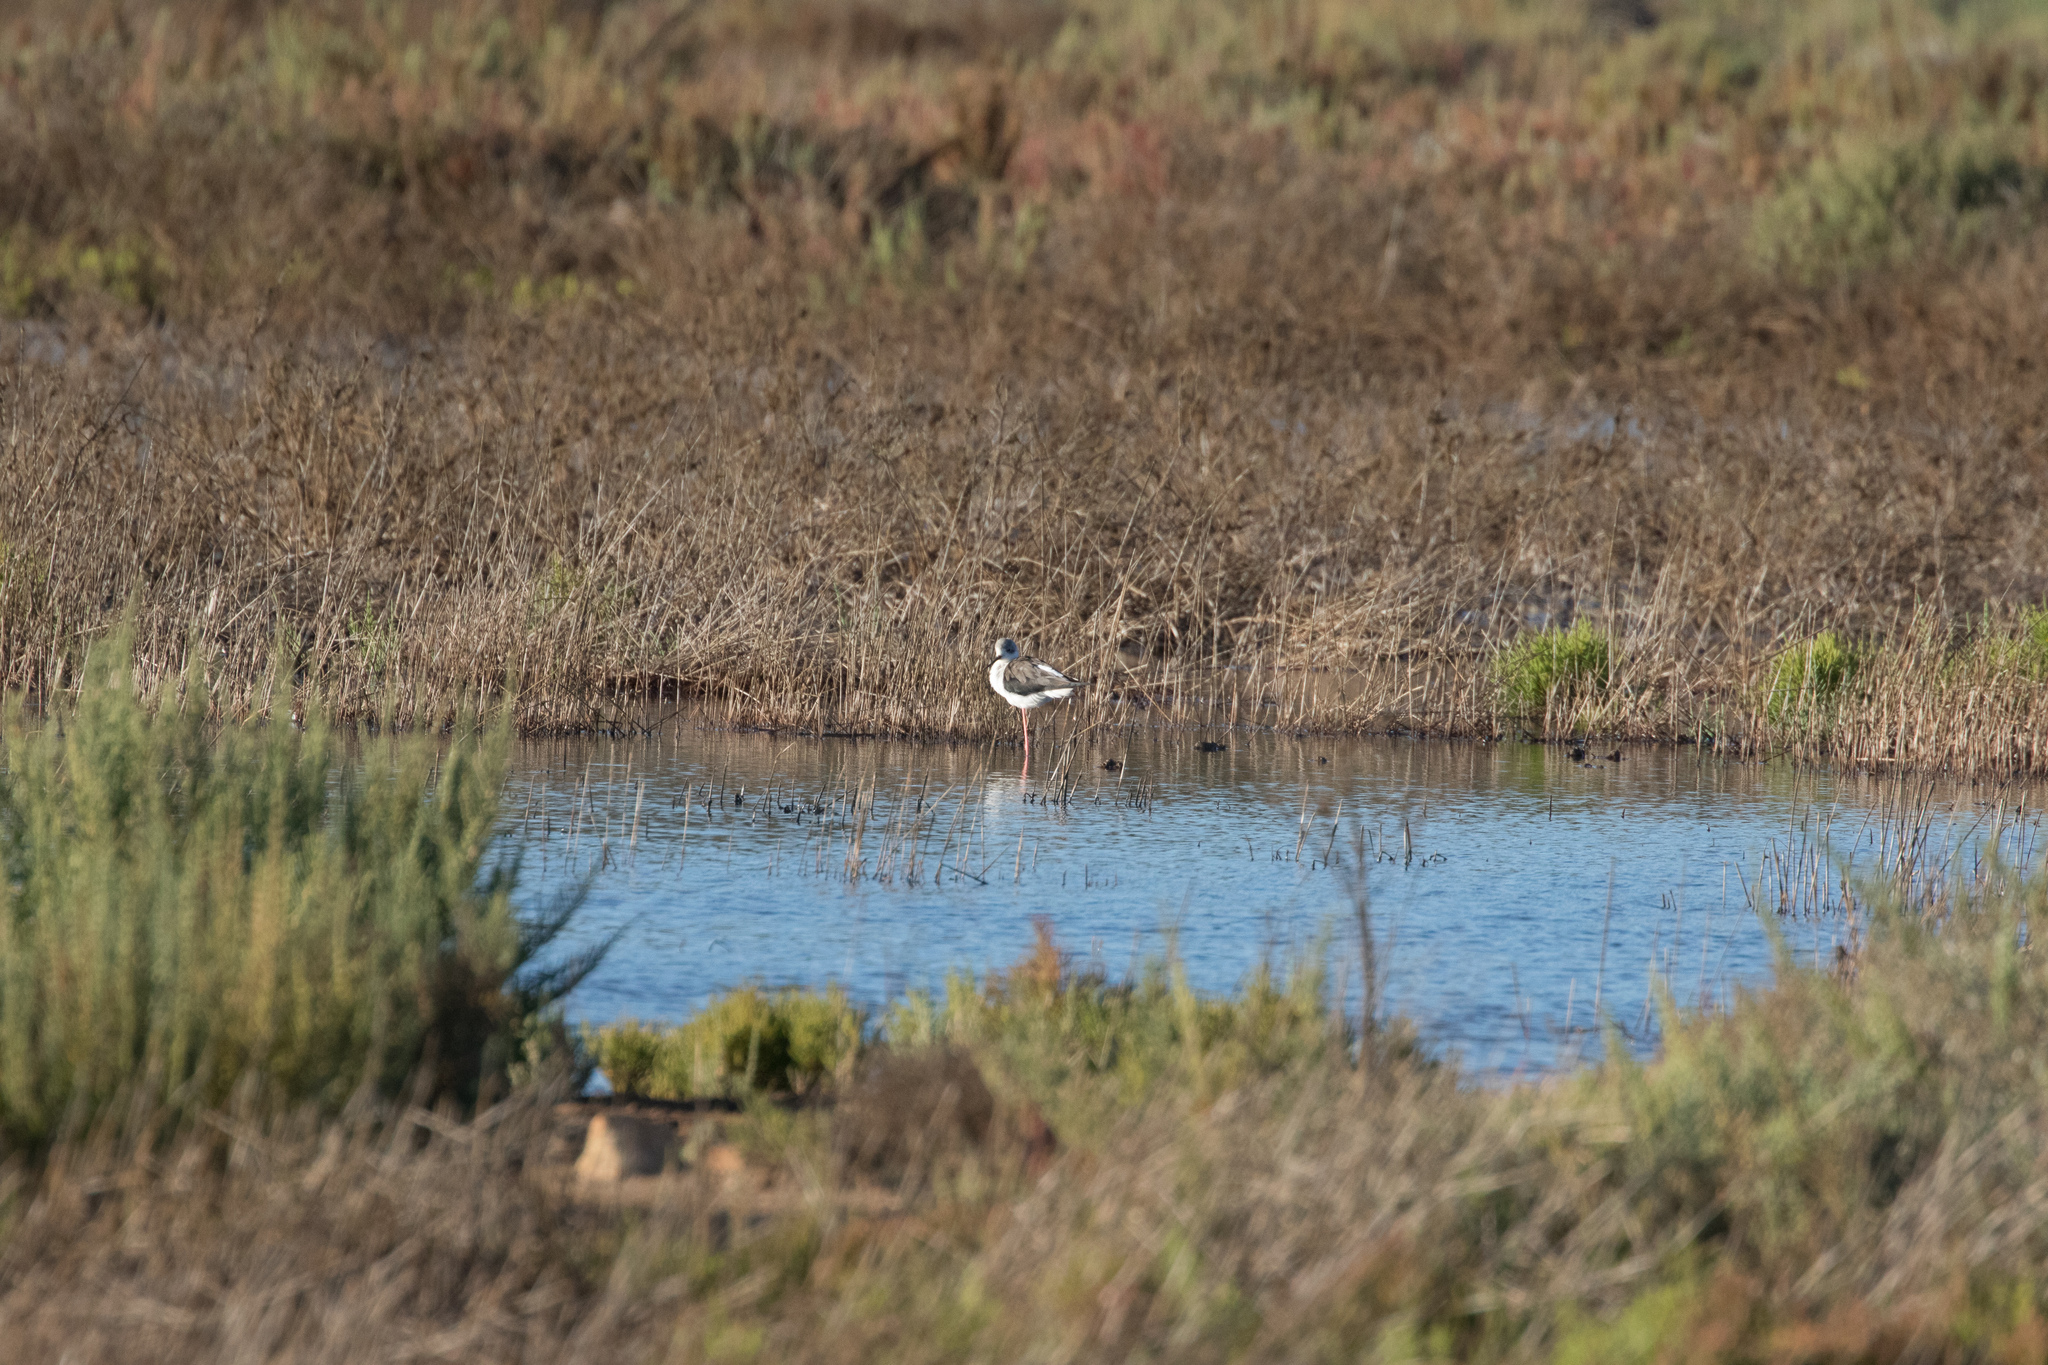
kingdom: Animalia
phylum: Chordata
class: Aves
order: Charadriiformes
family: Recurvirostridae
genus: Himantopus
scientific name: Himantopus himantopus
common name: Black-winged stilt
